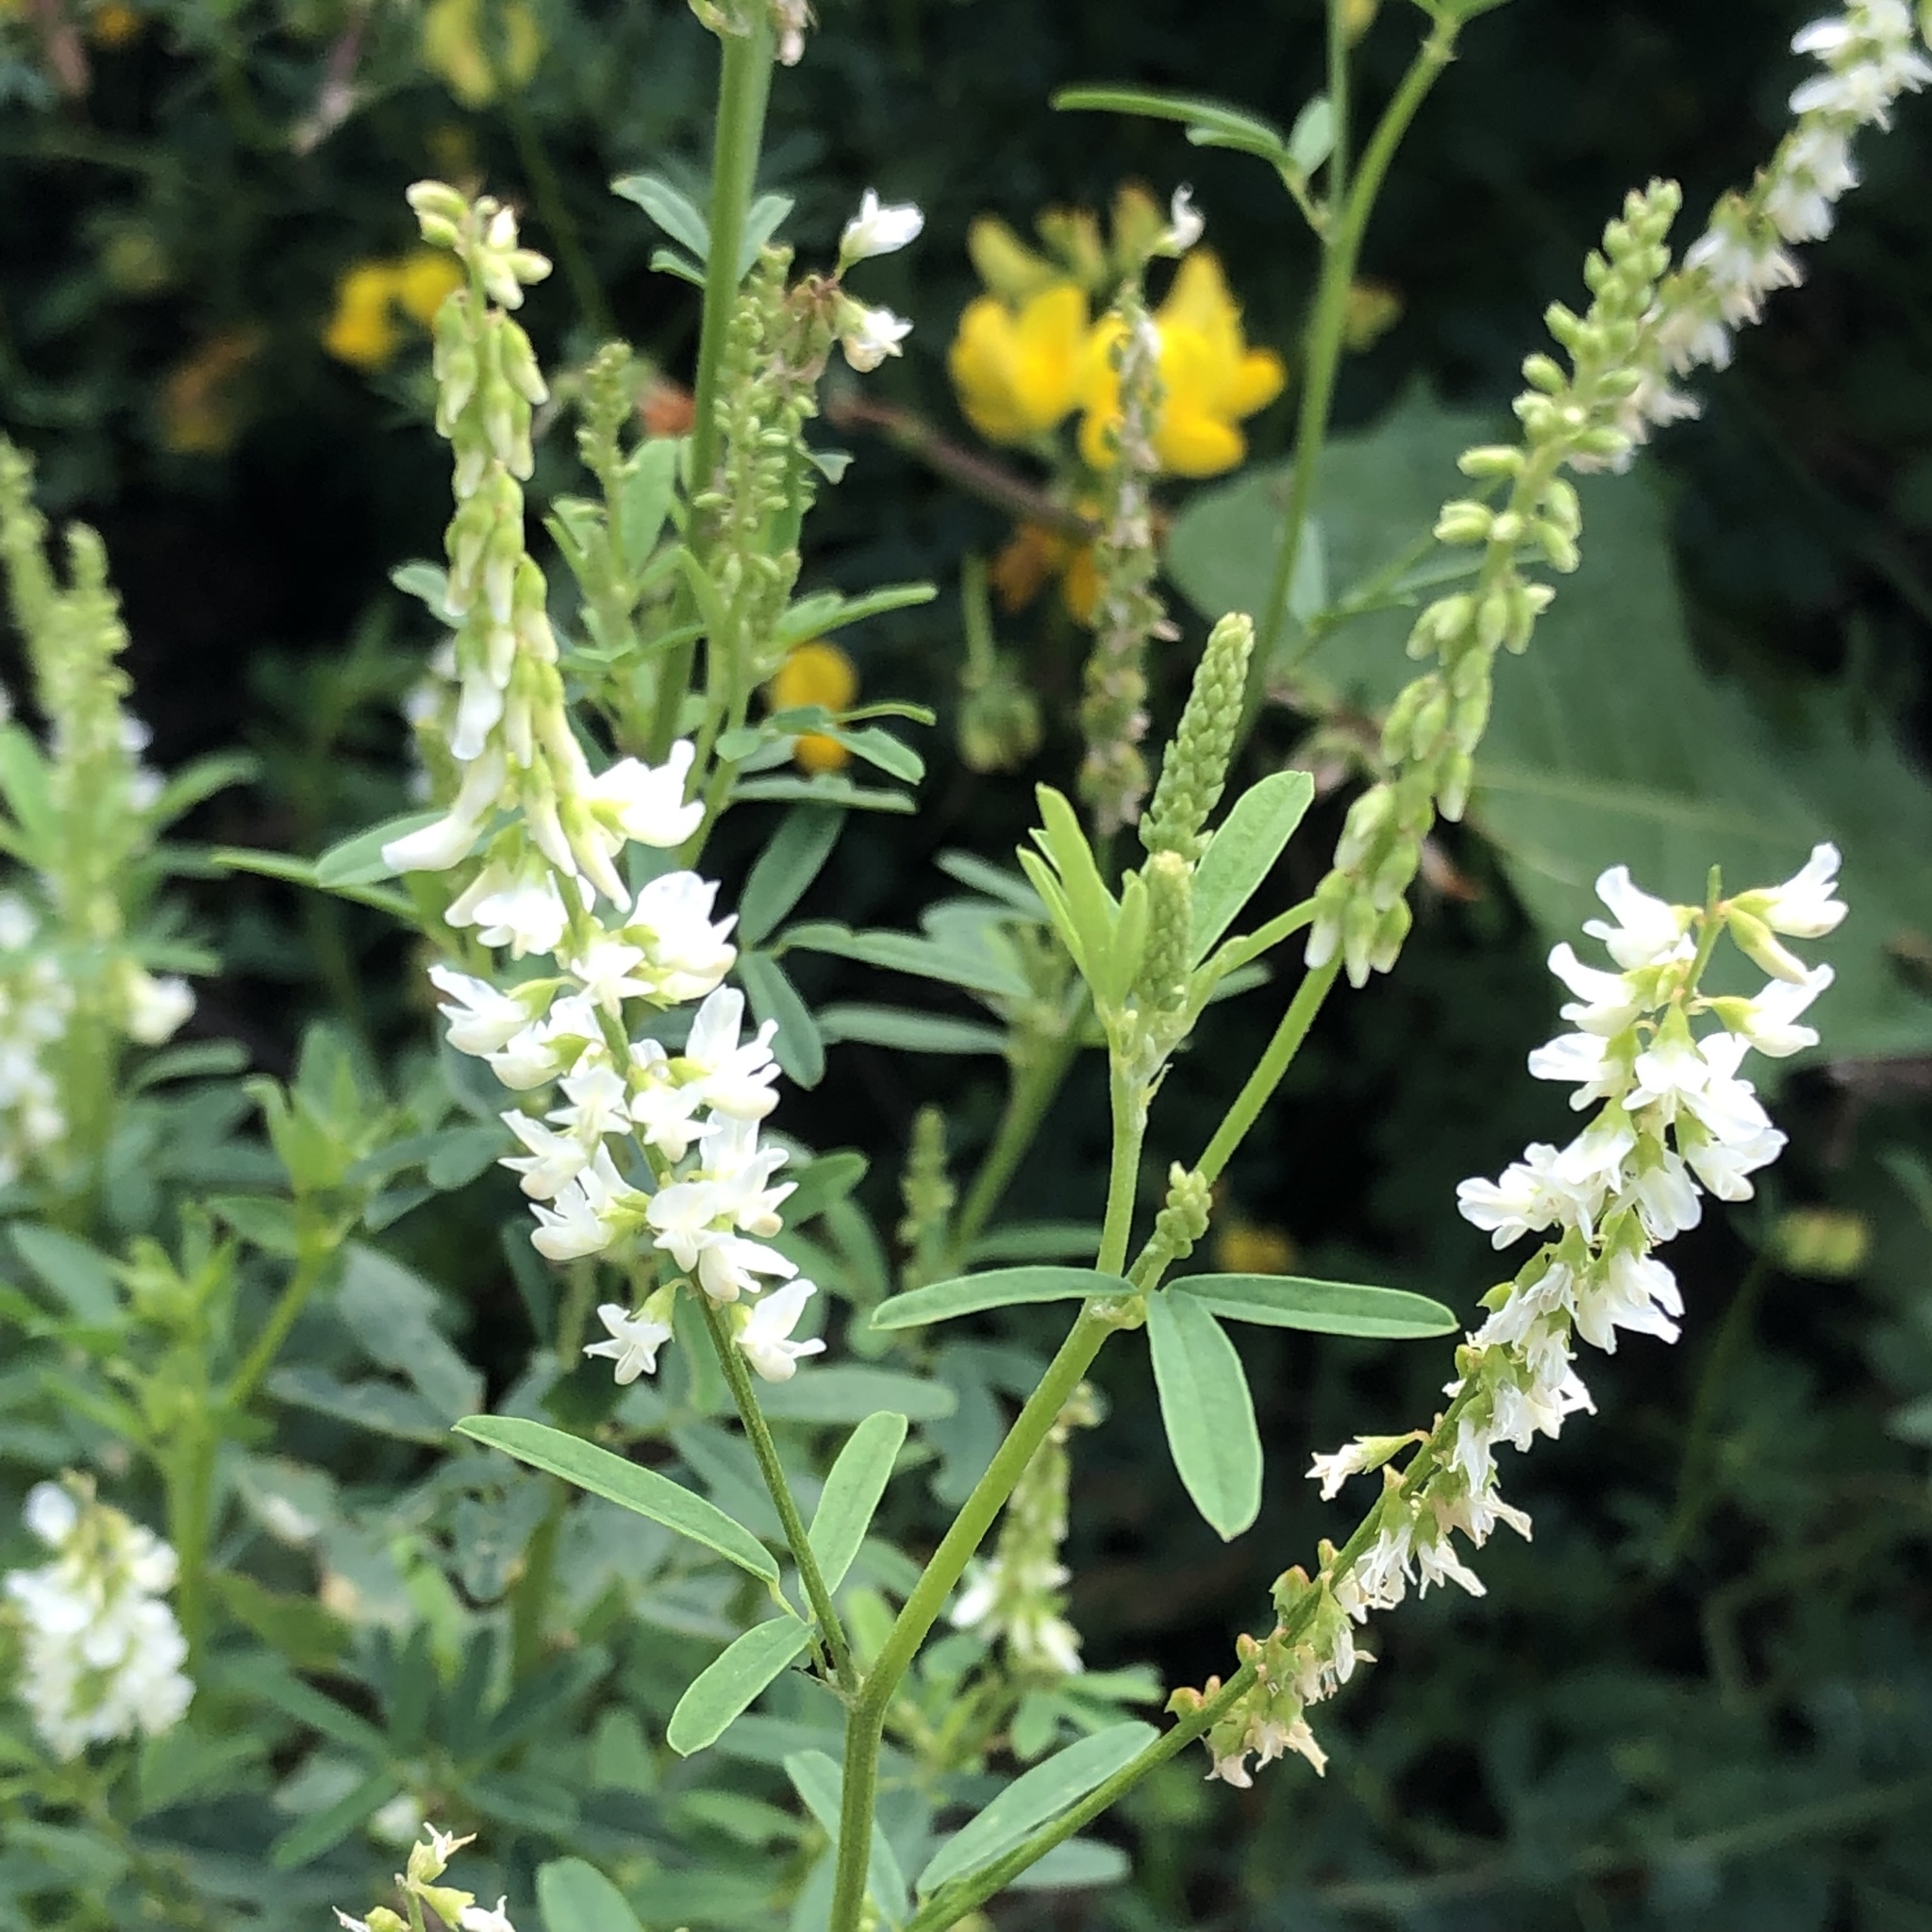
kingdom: Plantae
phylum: Tracheophyta
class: Magnoliopsida
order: Fabales
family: Fabaceae
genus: Melilotus
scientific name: Melilotus albus
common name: White melilot
